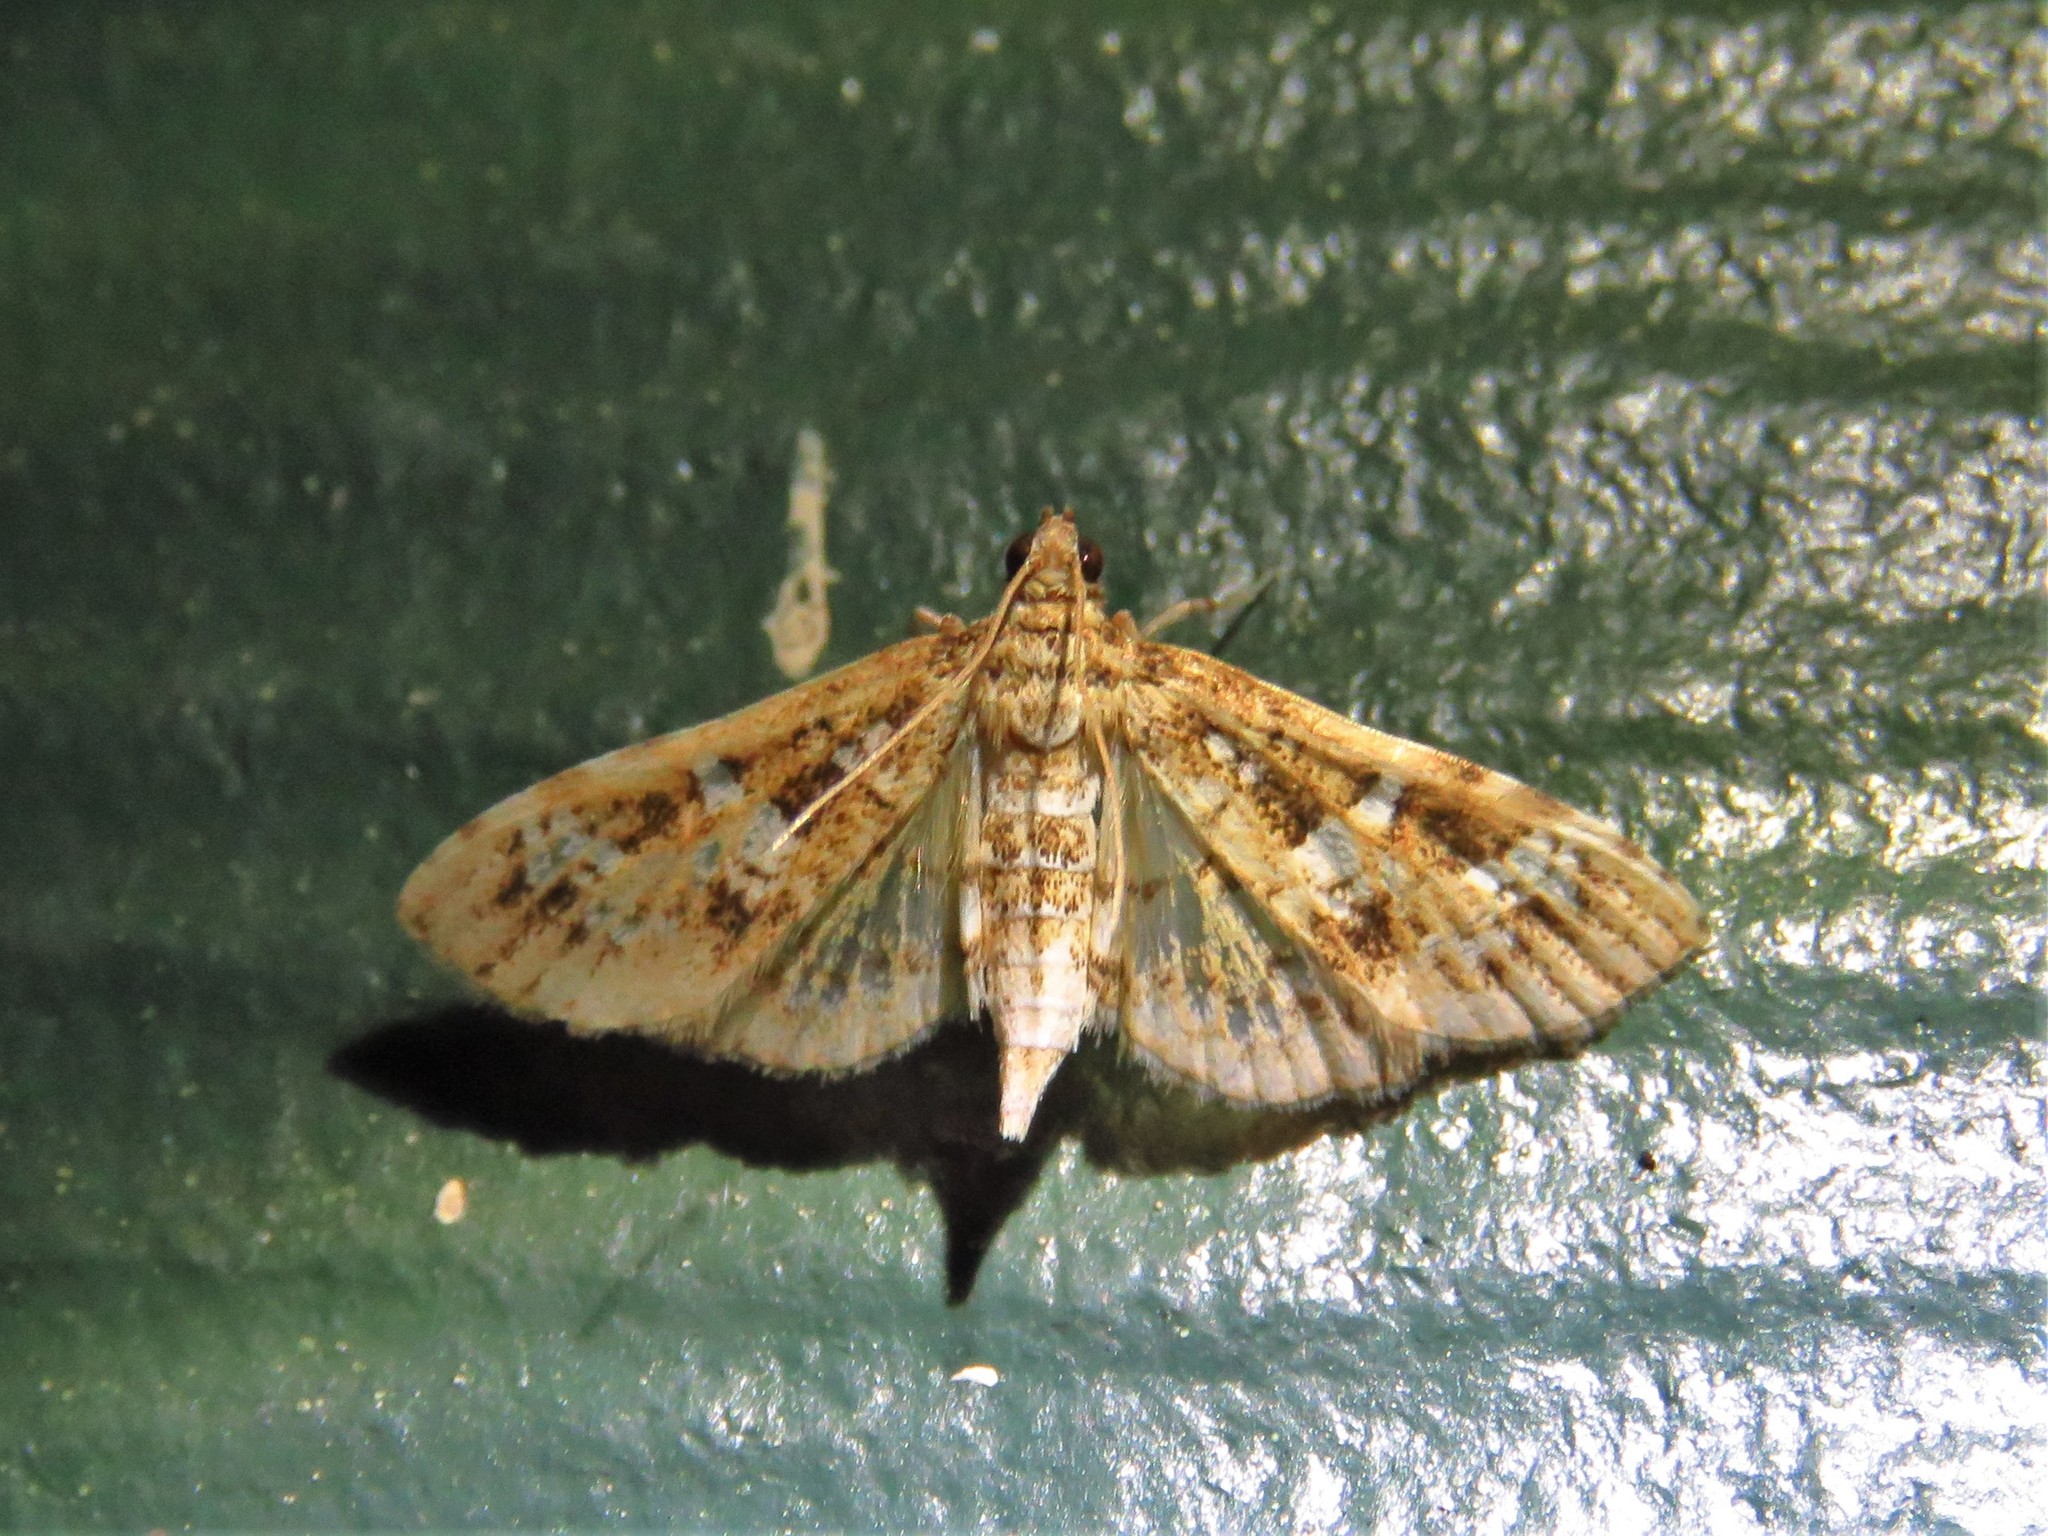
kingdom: Animalia
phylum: Arthropoda
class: Insecta
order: Lepidoptera
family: Crambidae
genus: Samea
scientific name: Samea multiplicalis
